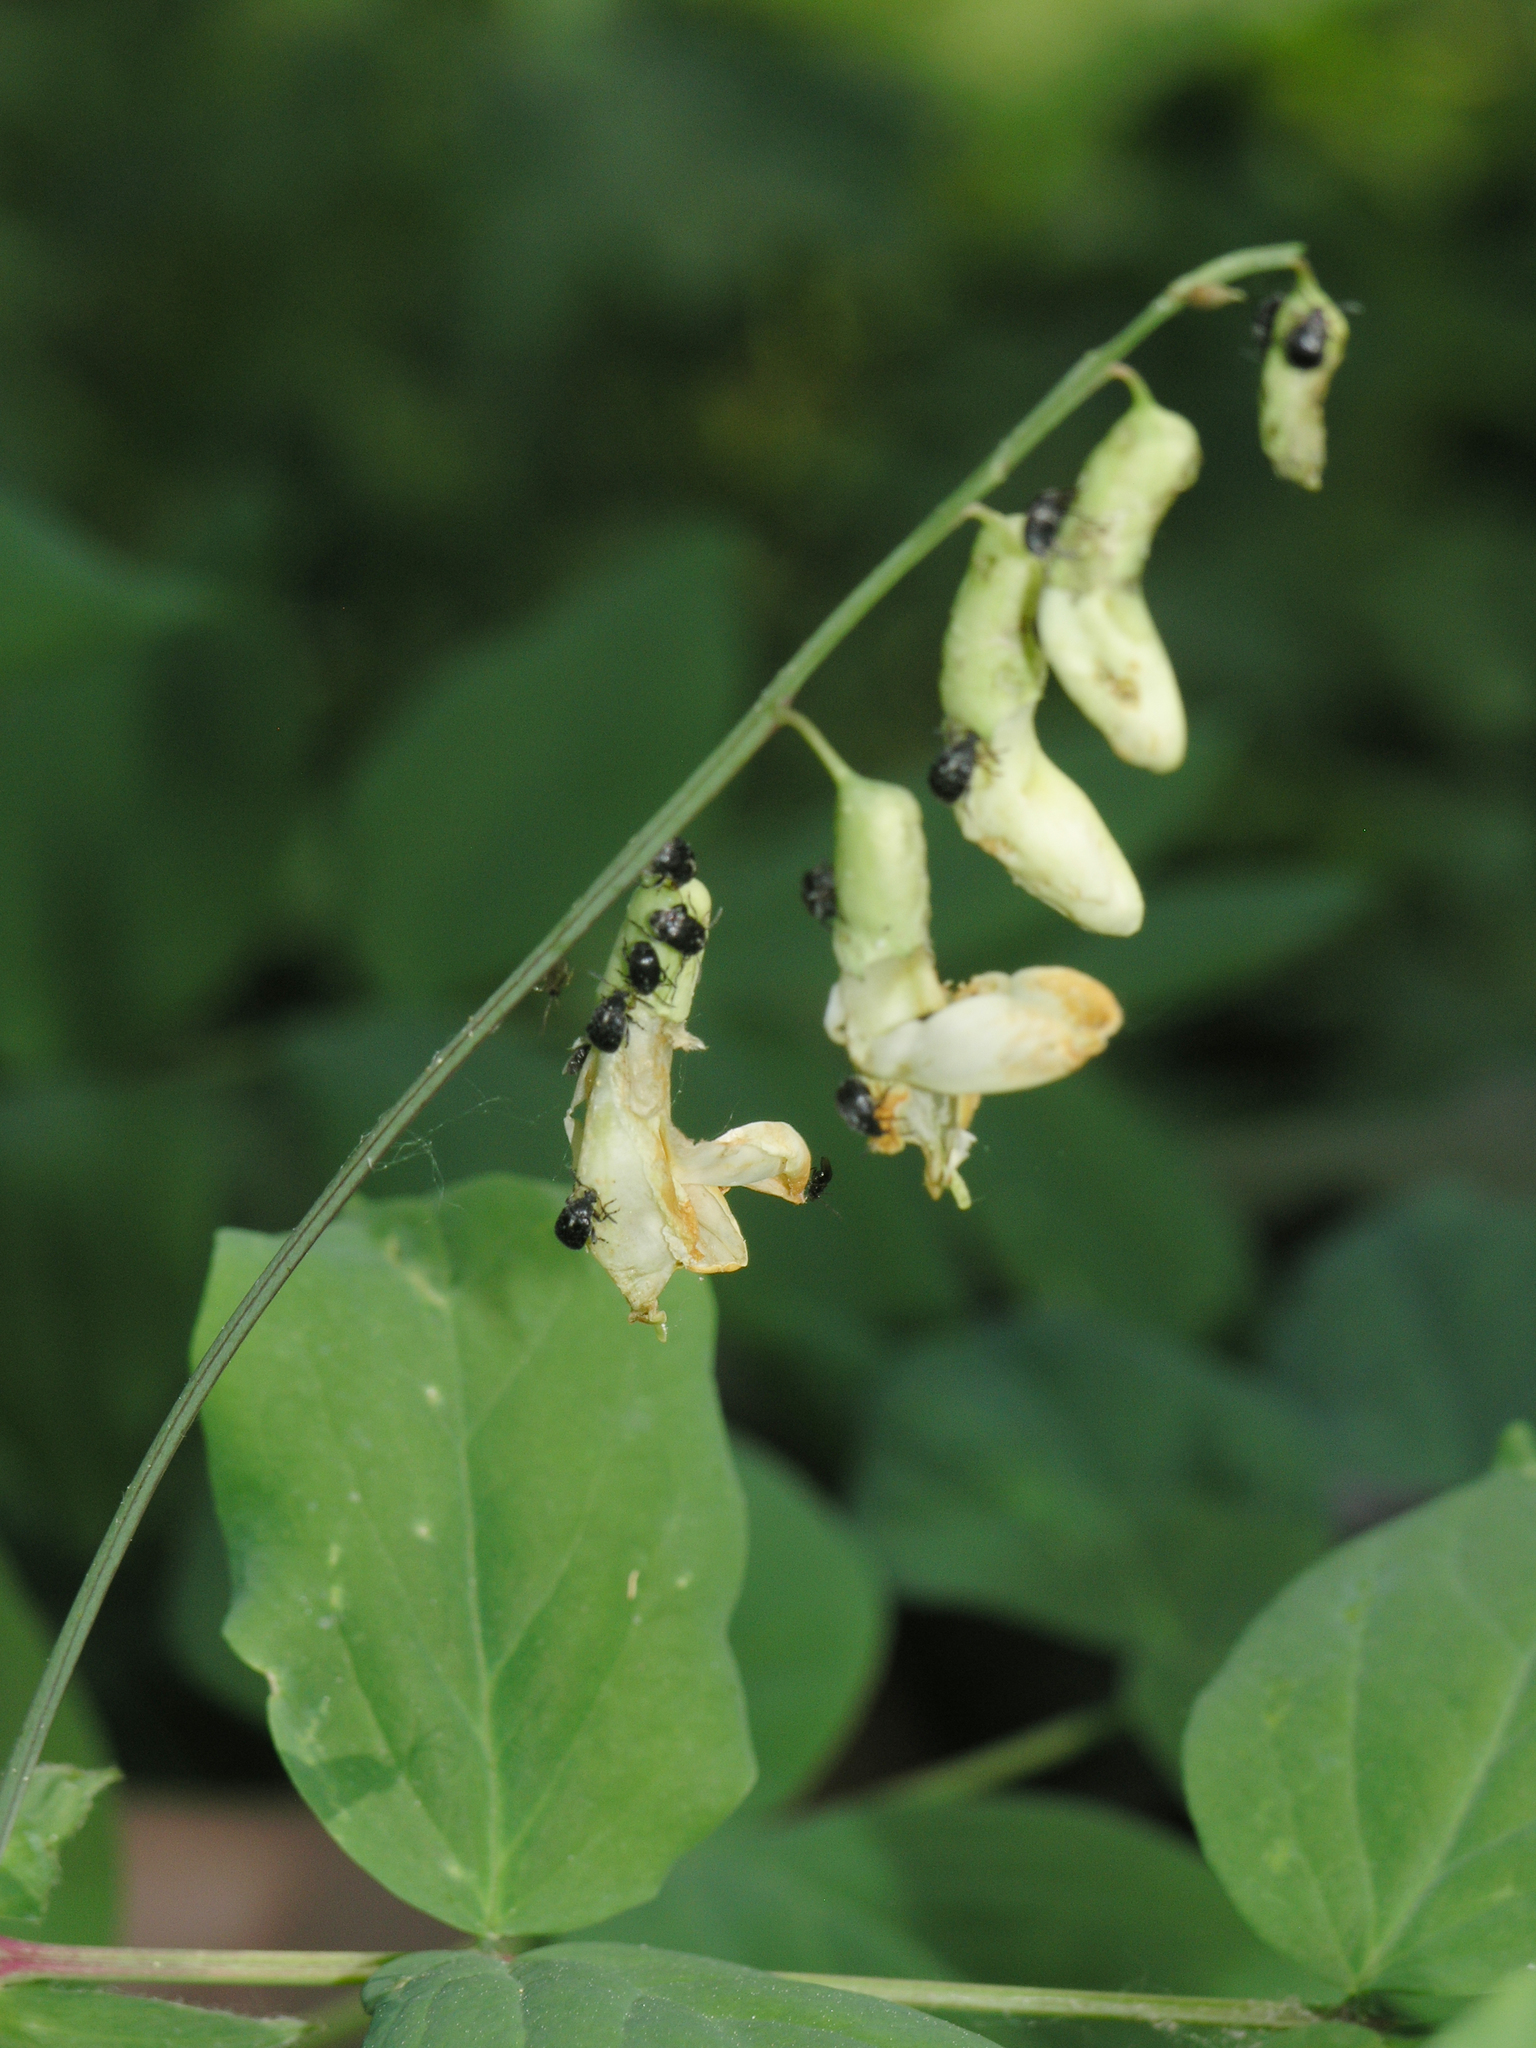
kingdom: Plantae
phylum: Tracheophyta
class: Magnoliopsida
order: Fabales
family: Fabaceae
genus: Lathyrus
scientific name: Lathyrus gmelinii
